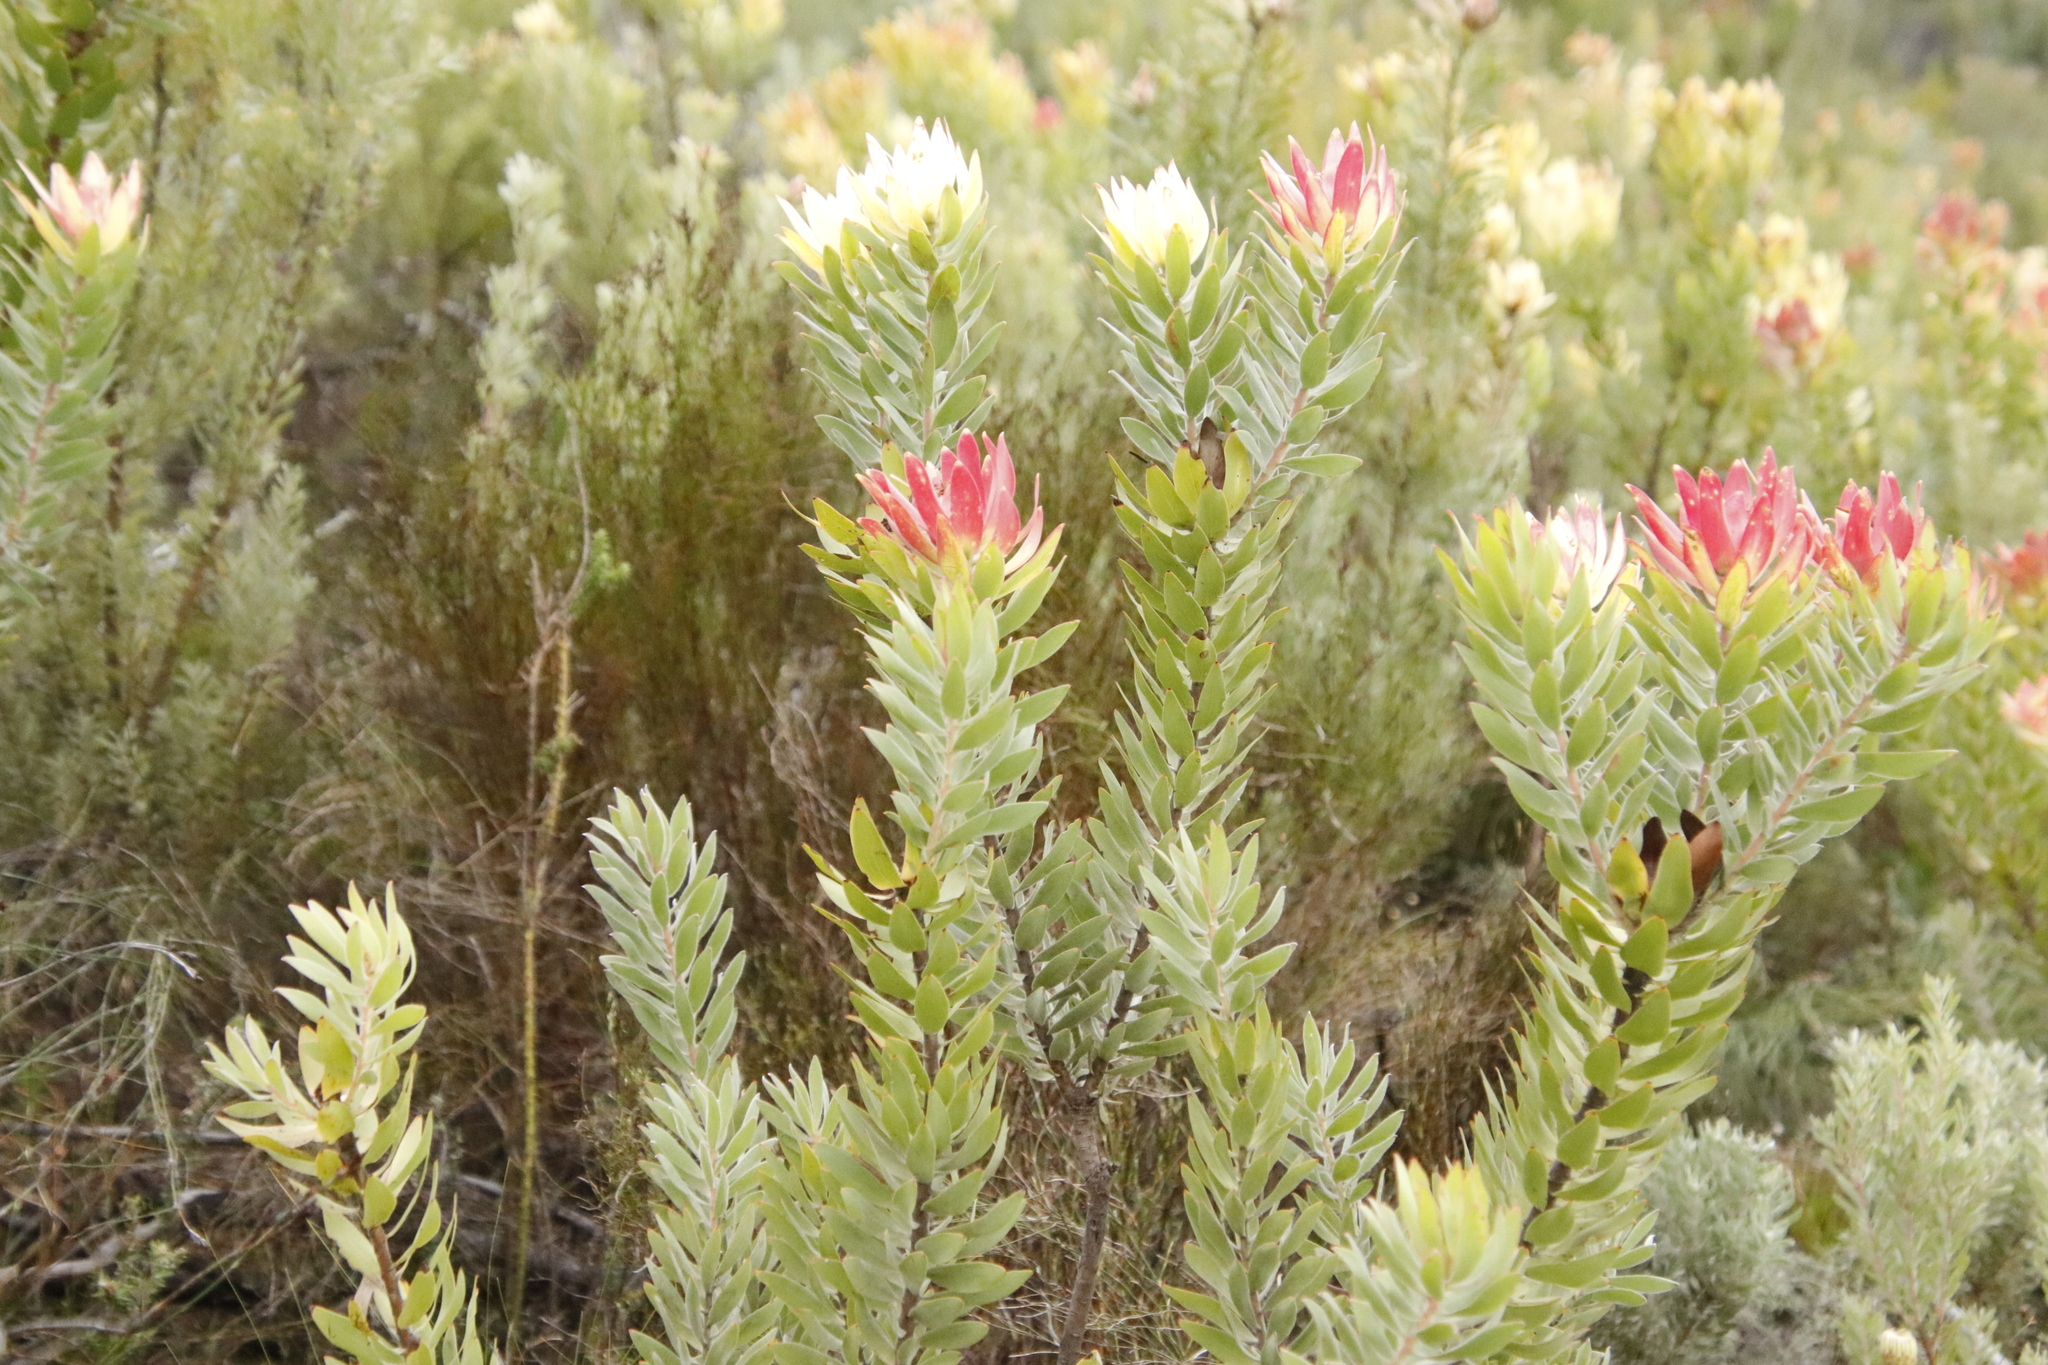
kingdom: Plantae
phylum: Tracheophyta
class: Magnoliopsida
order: Proteales
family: Proteaceae
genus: Leucadendron
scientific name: Leucadendron daphnoides
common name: Du toit's kloof conebush
